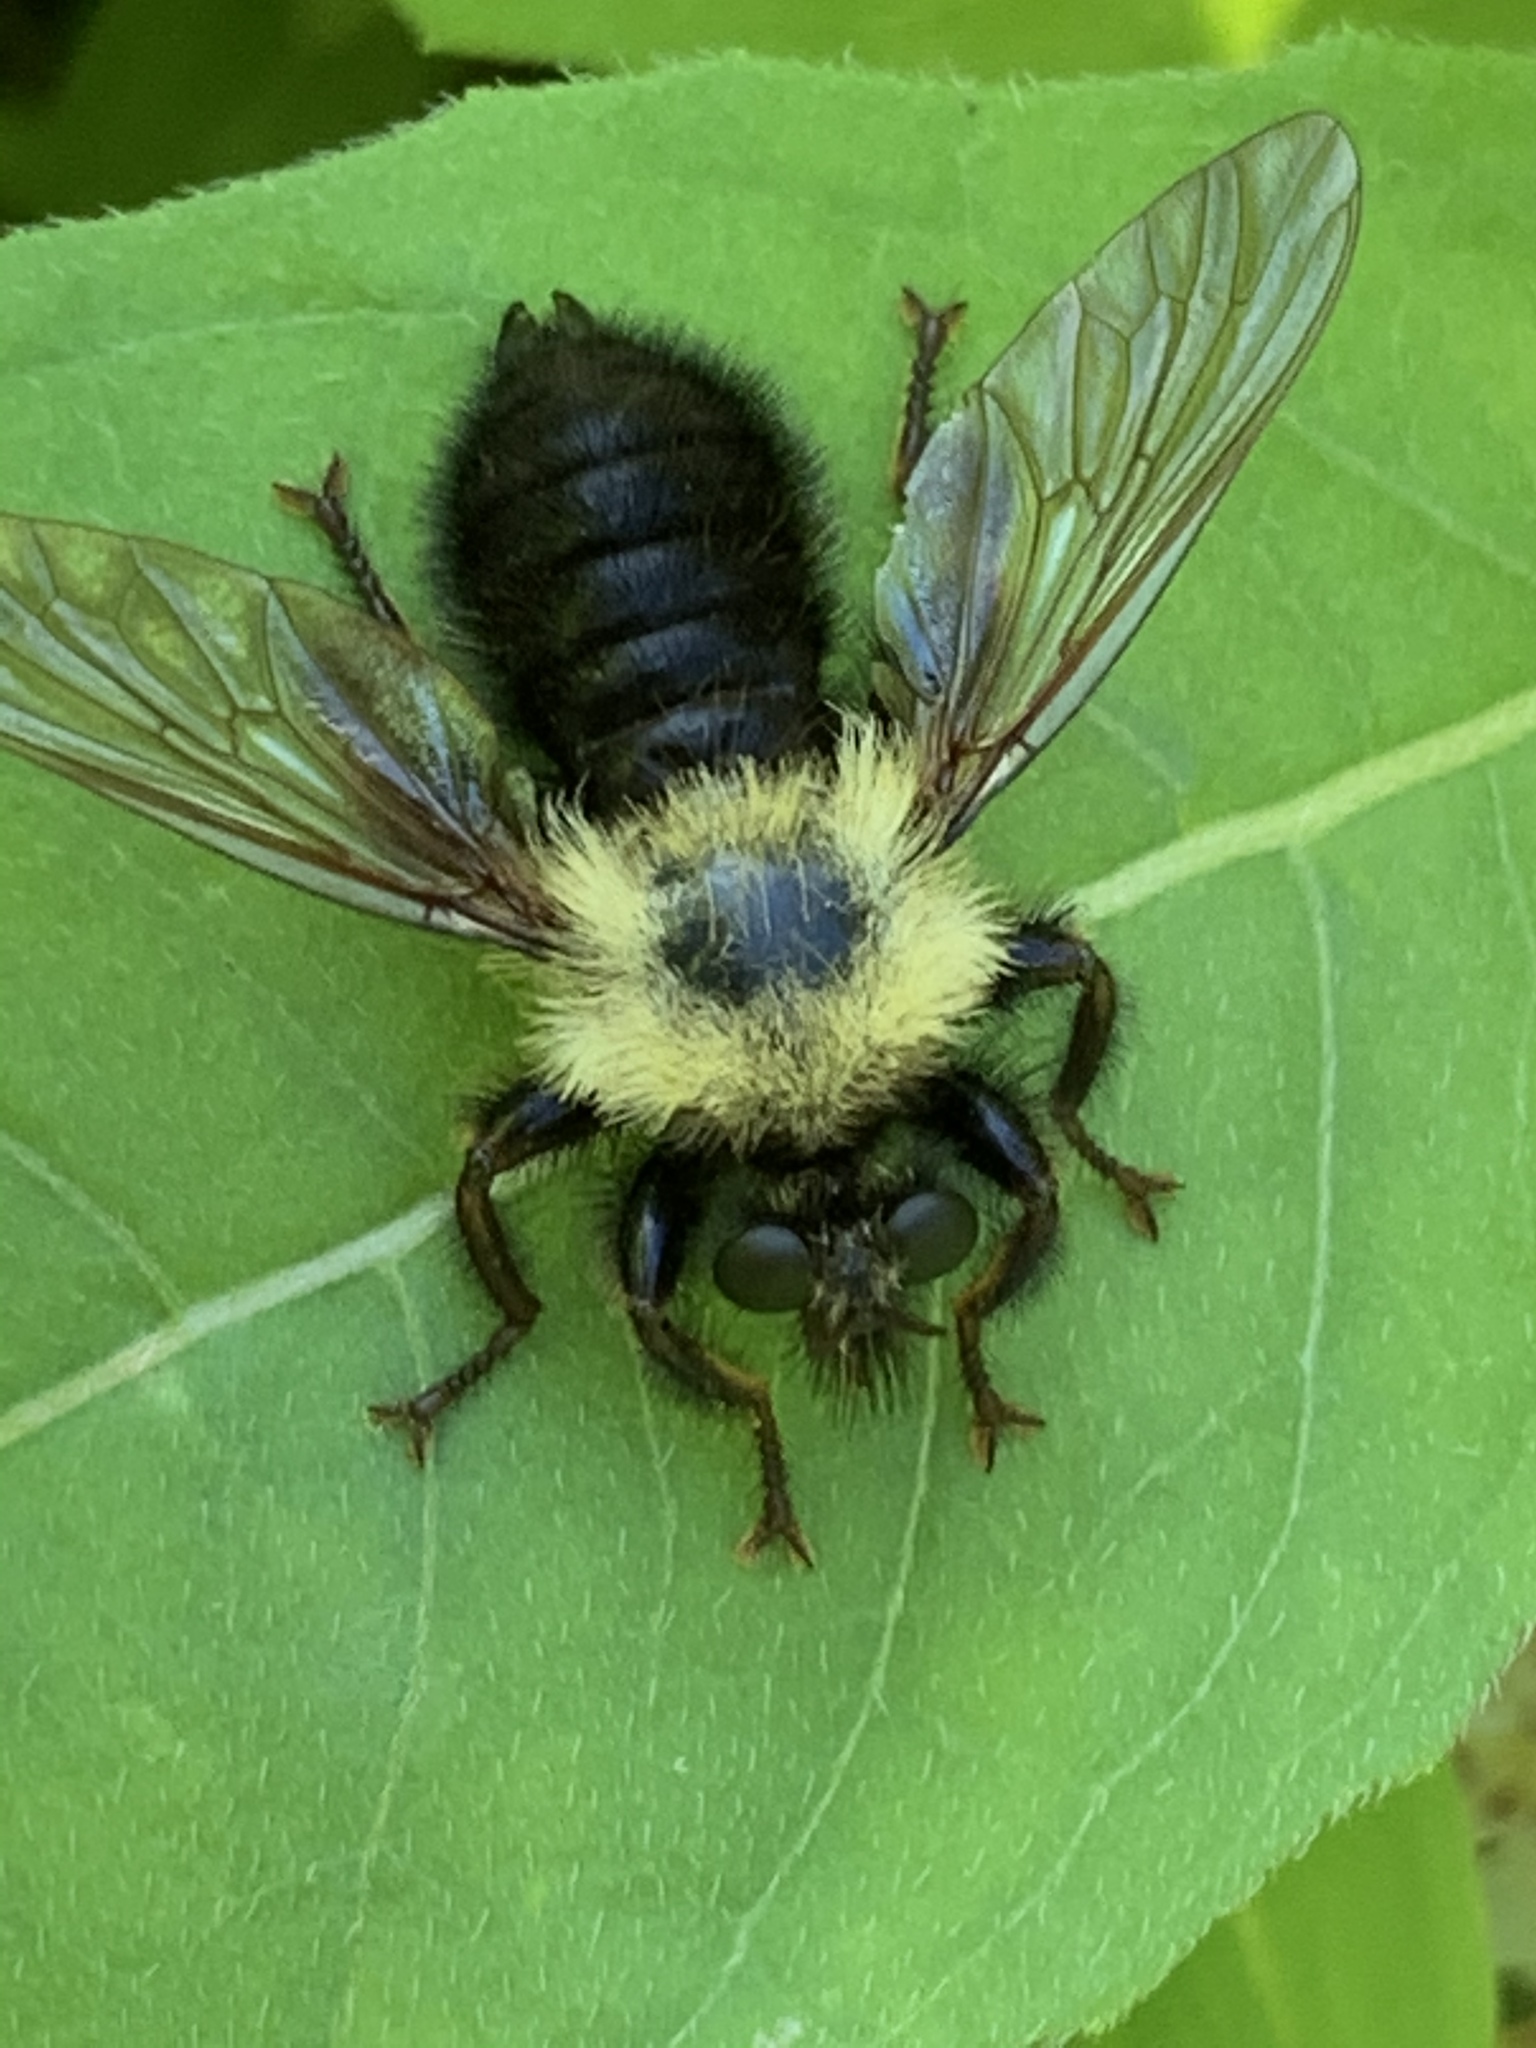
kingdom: Animalia
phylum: Arthropoda
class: Insecta
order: Diptera
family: Asilidae
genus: Laphria
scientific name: Laphria thoracica
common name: Bumble bee mimic robber fly
